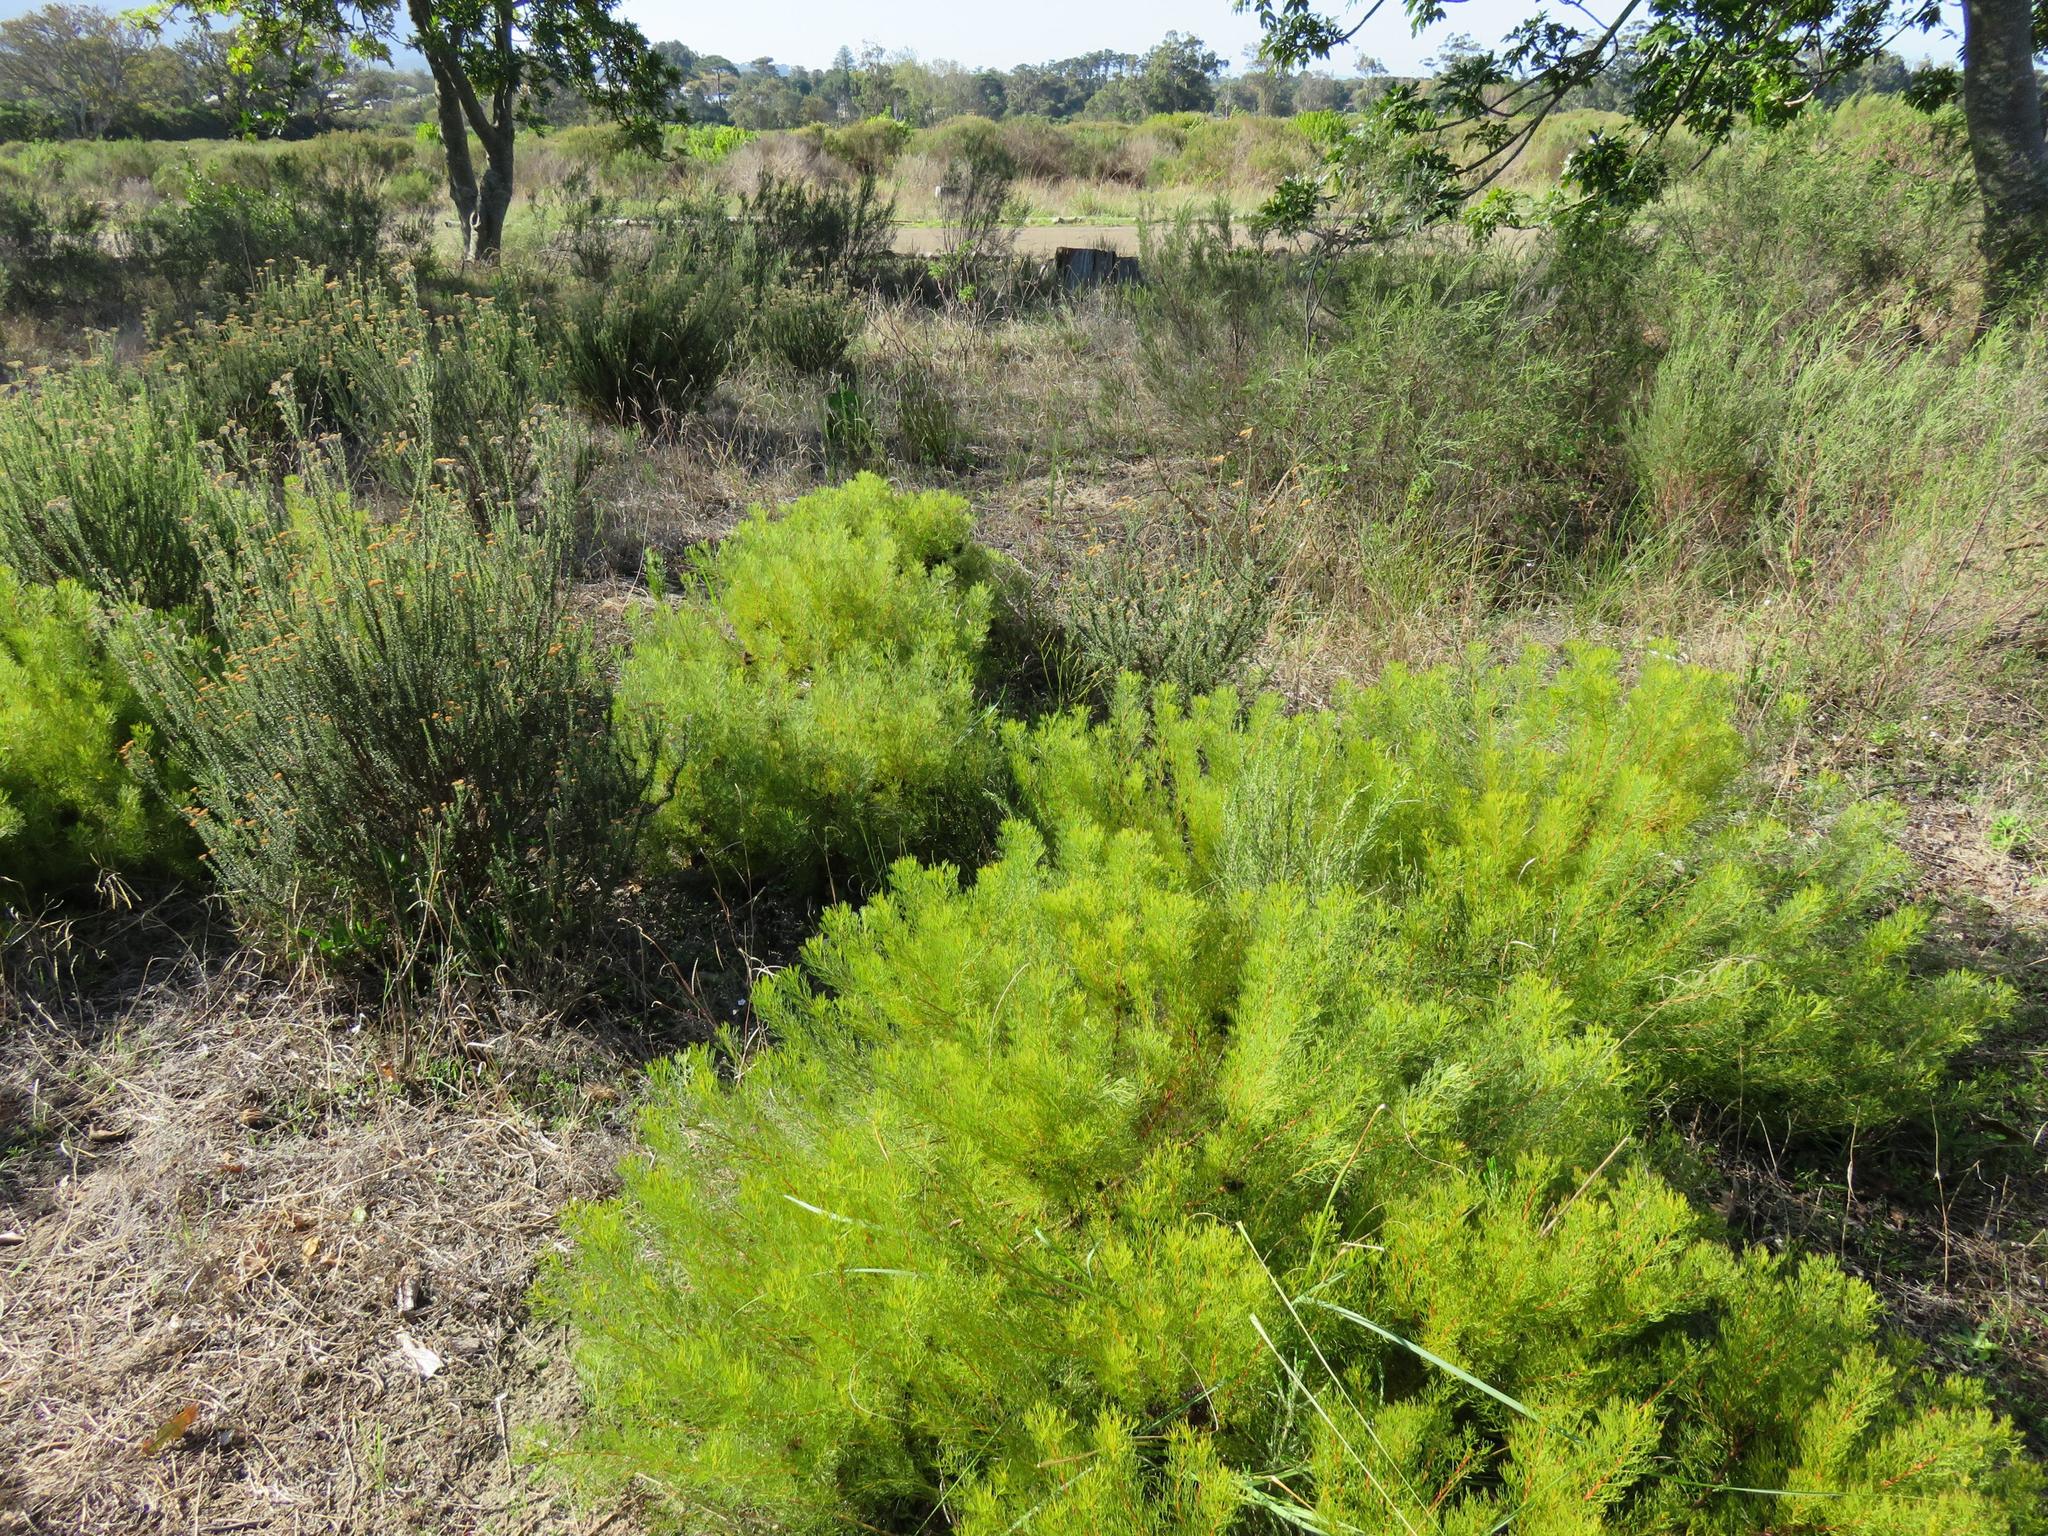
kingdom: Plantae
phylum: Tracheophyta
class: Magnoliopsida
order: Proteales
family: Proteaceae
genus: Serruria
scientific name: Serruria
